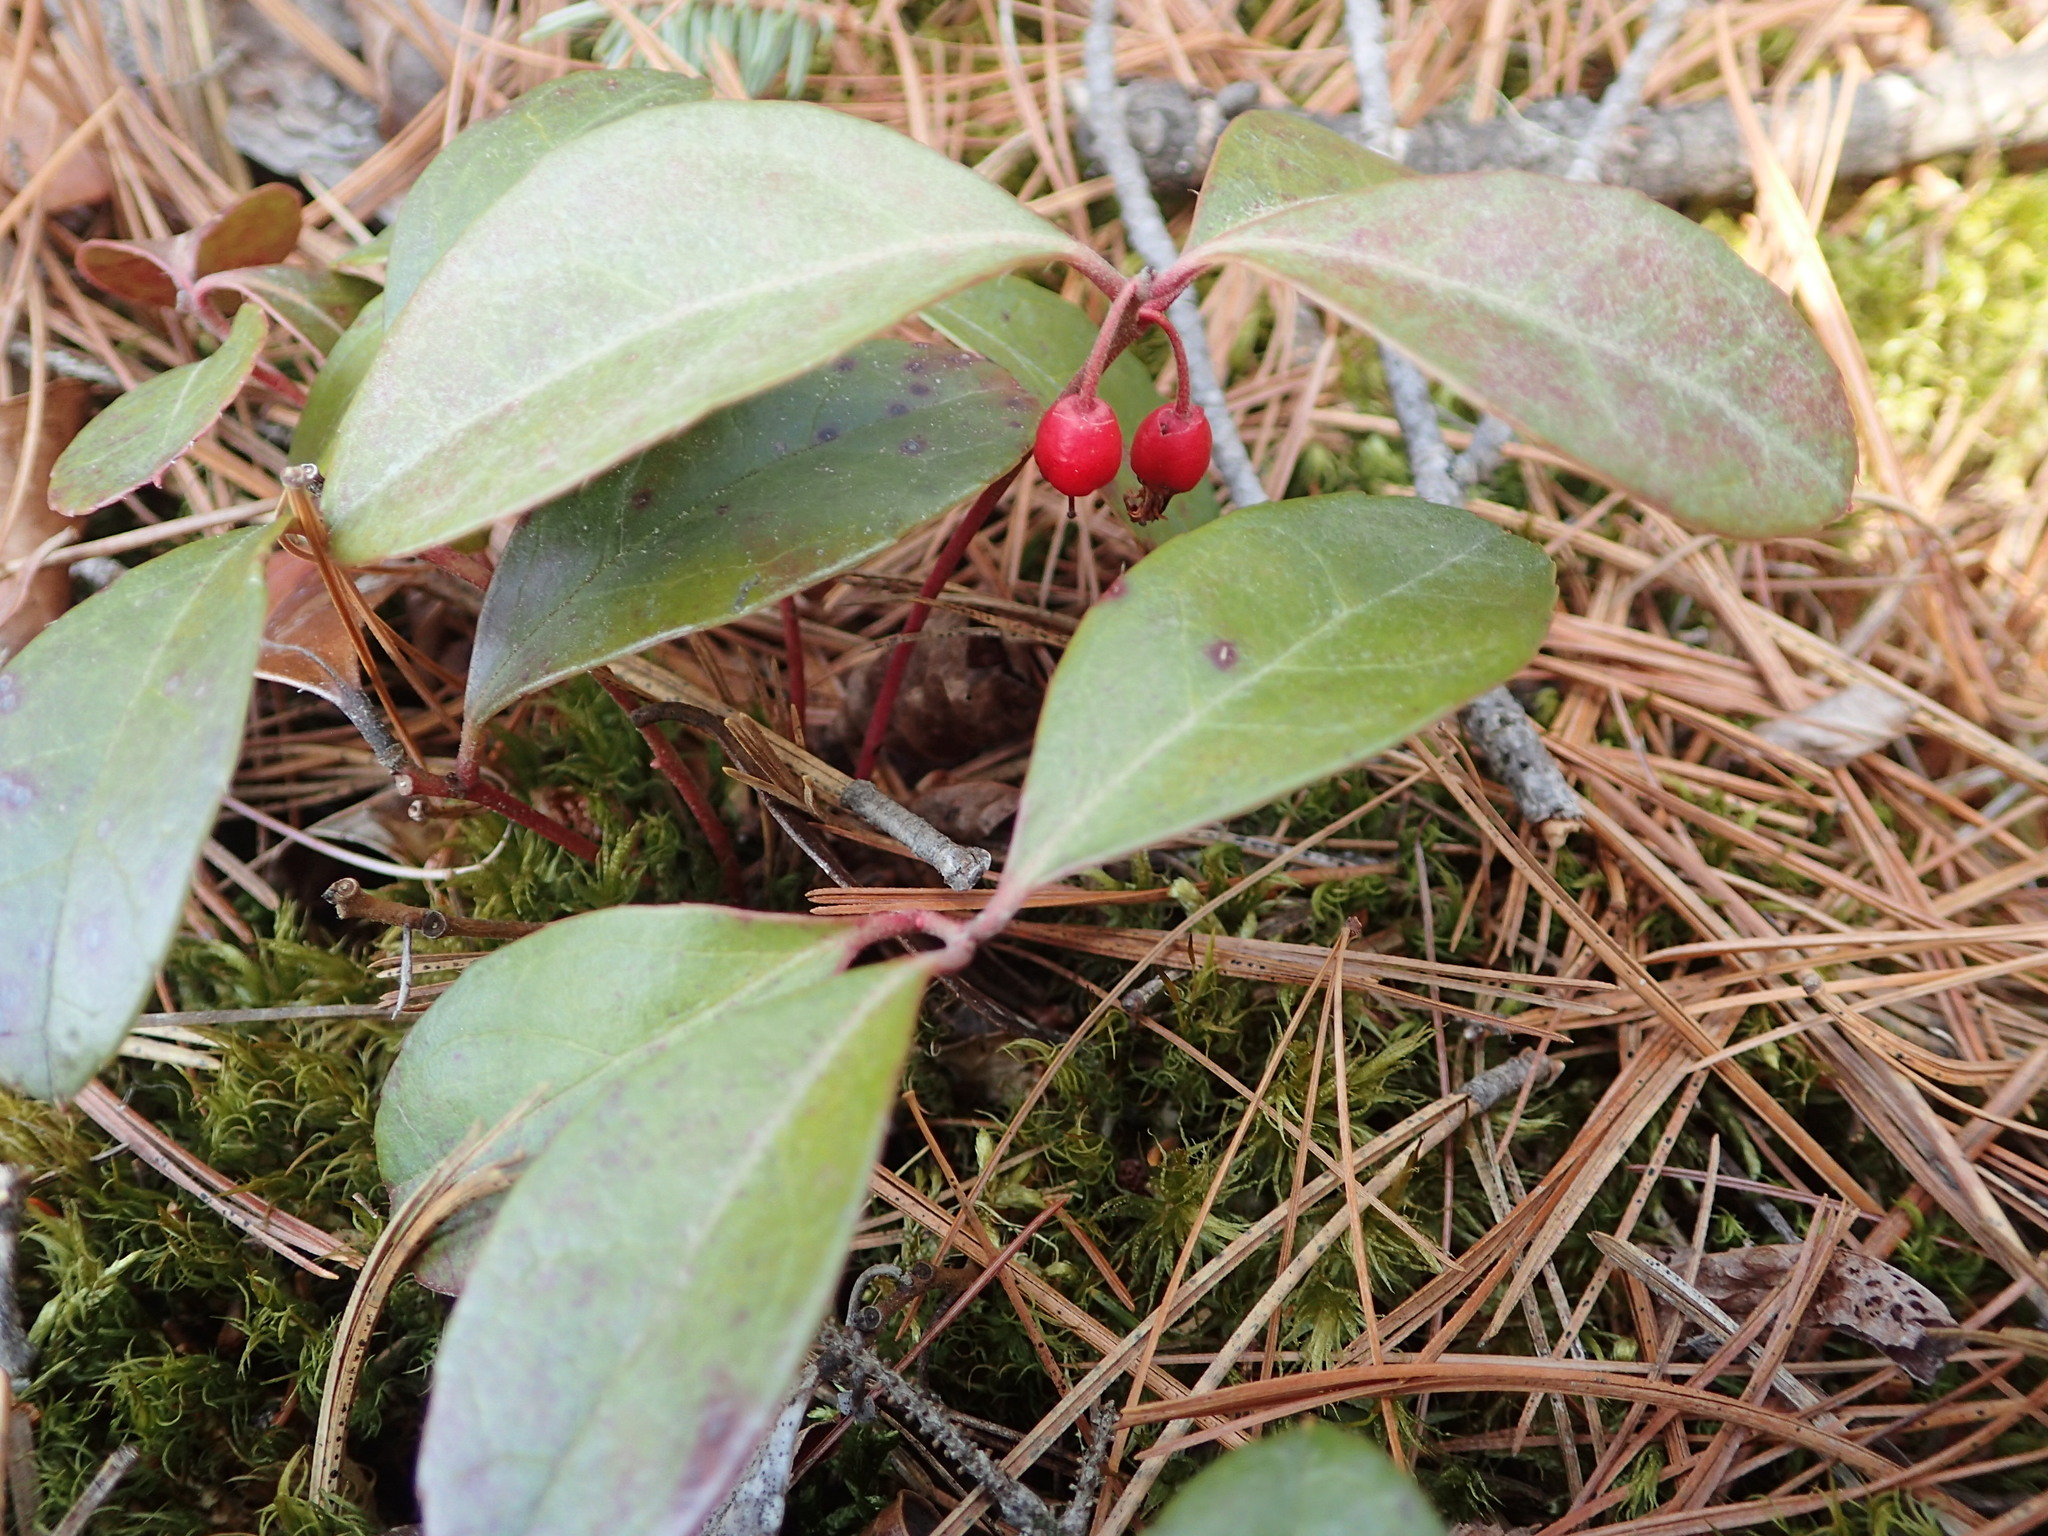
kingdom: Plantae
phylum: Tracheophyta
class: Magnoliopsida
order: Ericales
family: Ericaceae
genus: Gaultheria
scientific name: Gaultheria procumbens
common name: Checkerberry
